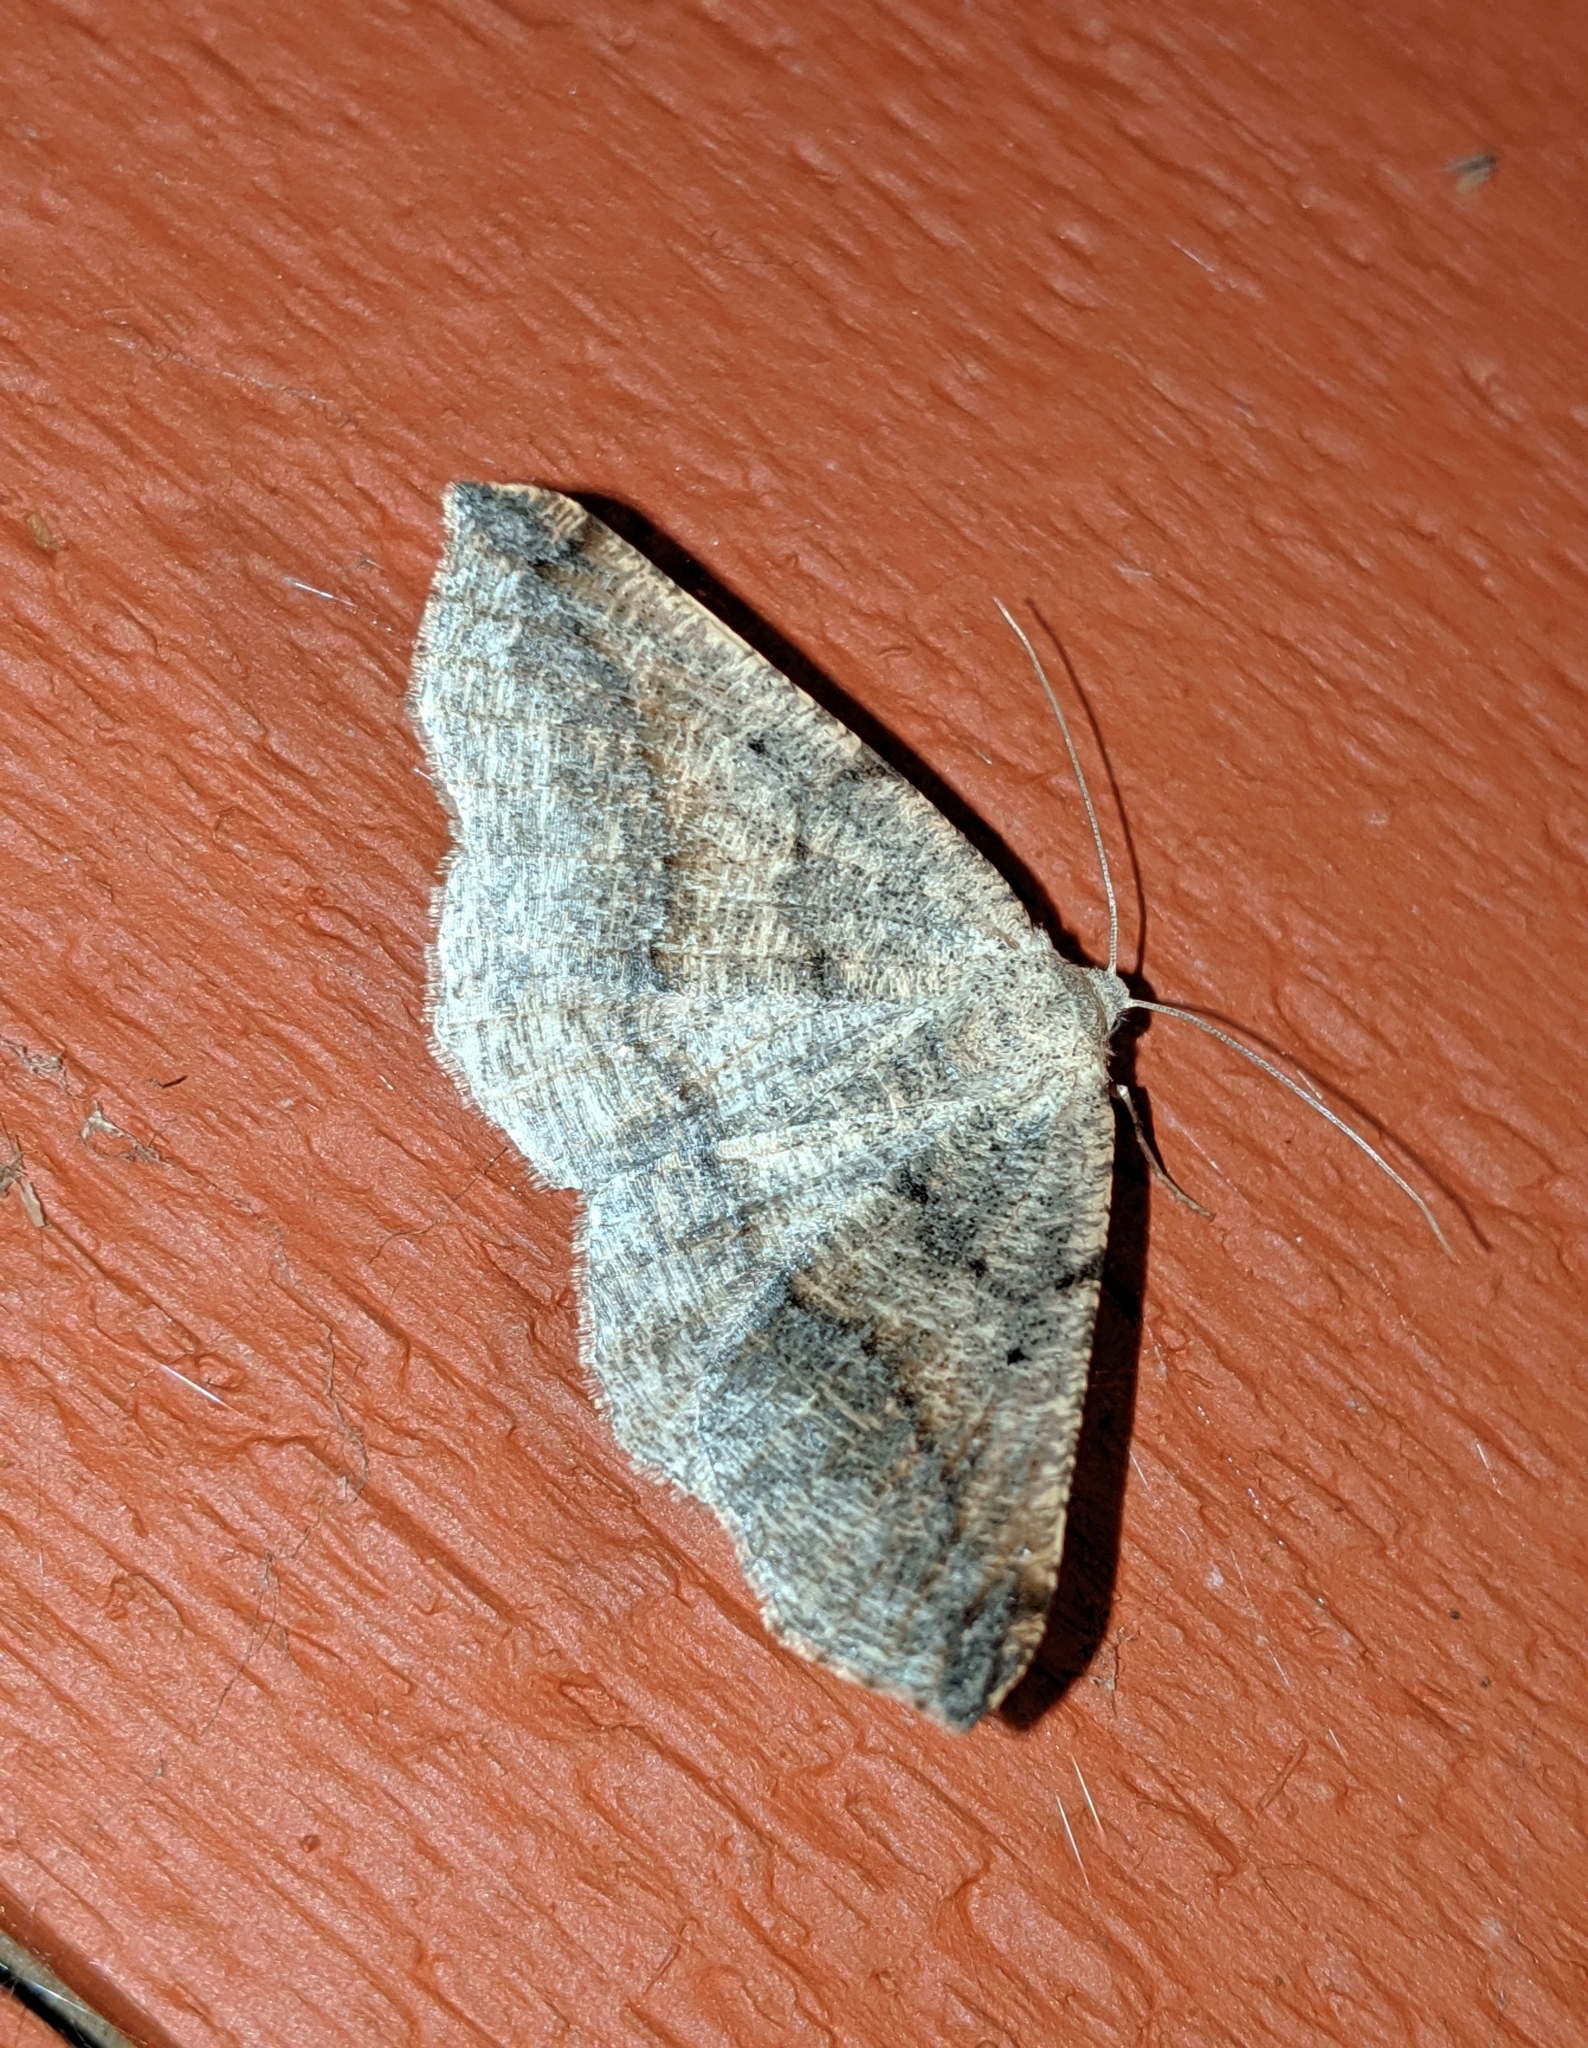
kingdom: Animalia
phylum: Arthropoda
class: Insecta
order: Lepidoptera
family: Geometridae
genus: Prochoerodes
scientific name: Prochoerodes forficaria
